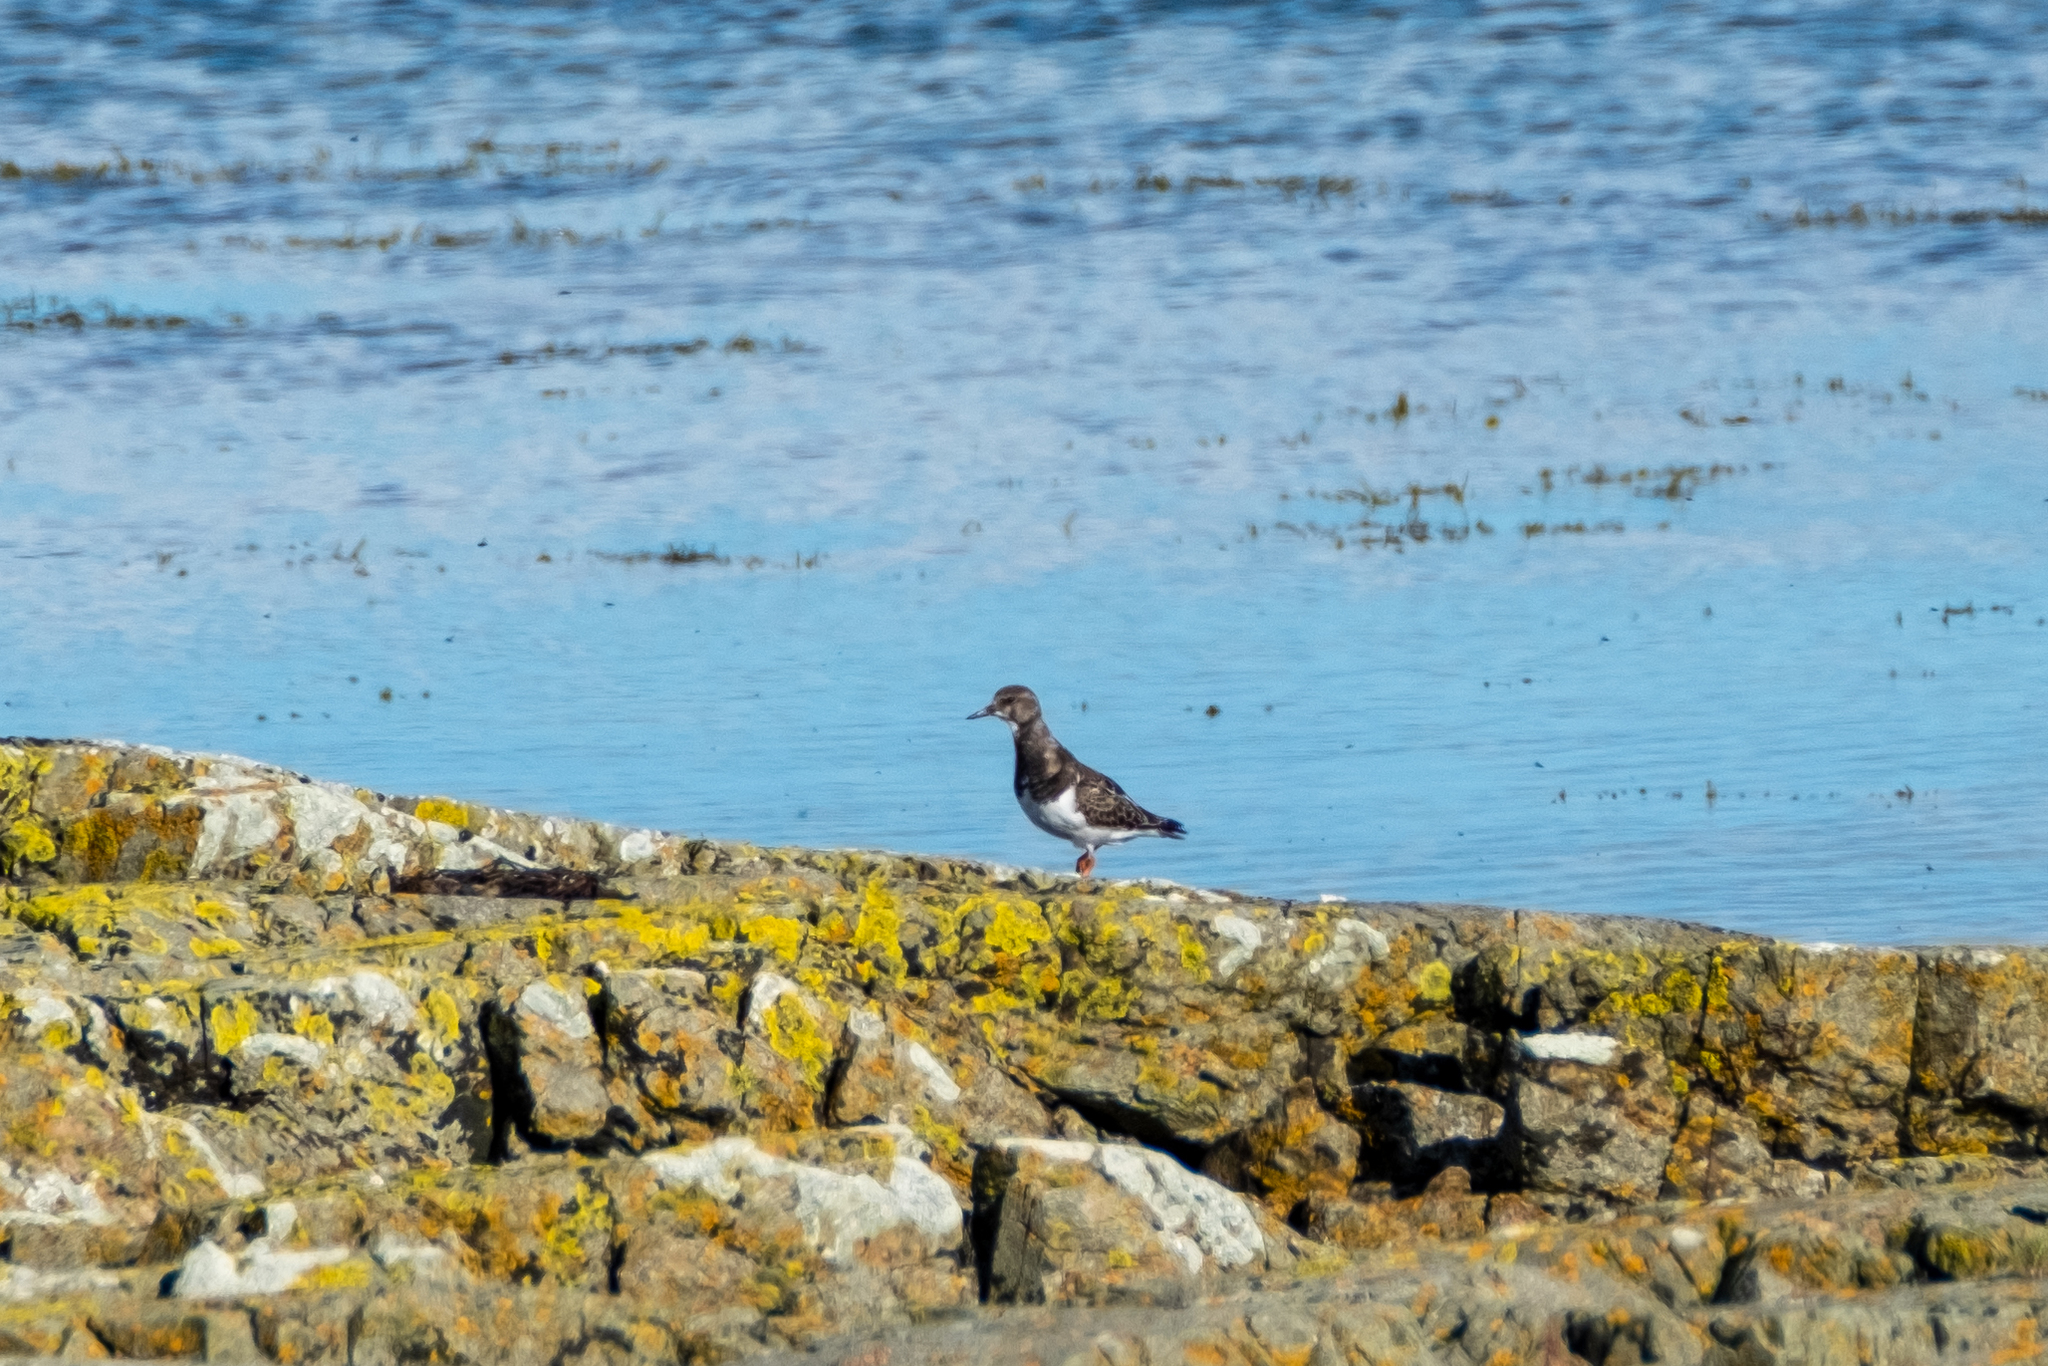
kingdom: Animalia
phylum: Chordata
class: Aves
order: Charadriiformes
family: Scolopacidae
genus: Arenaria
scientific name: Arenaria interpres
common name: Ruddy turnstone
